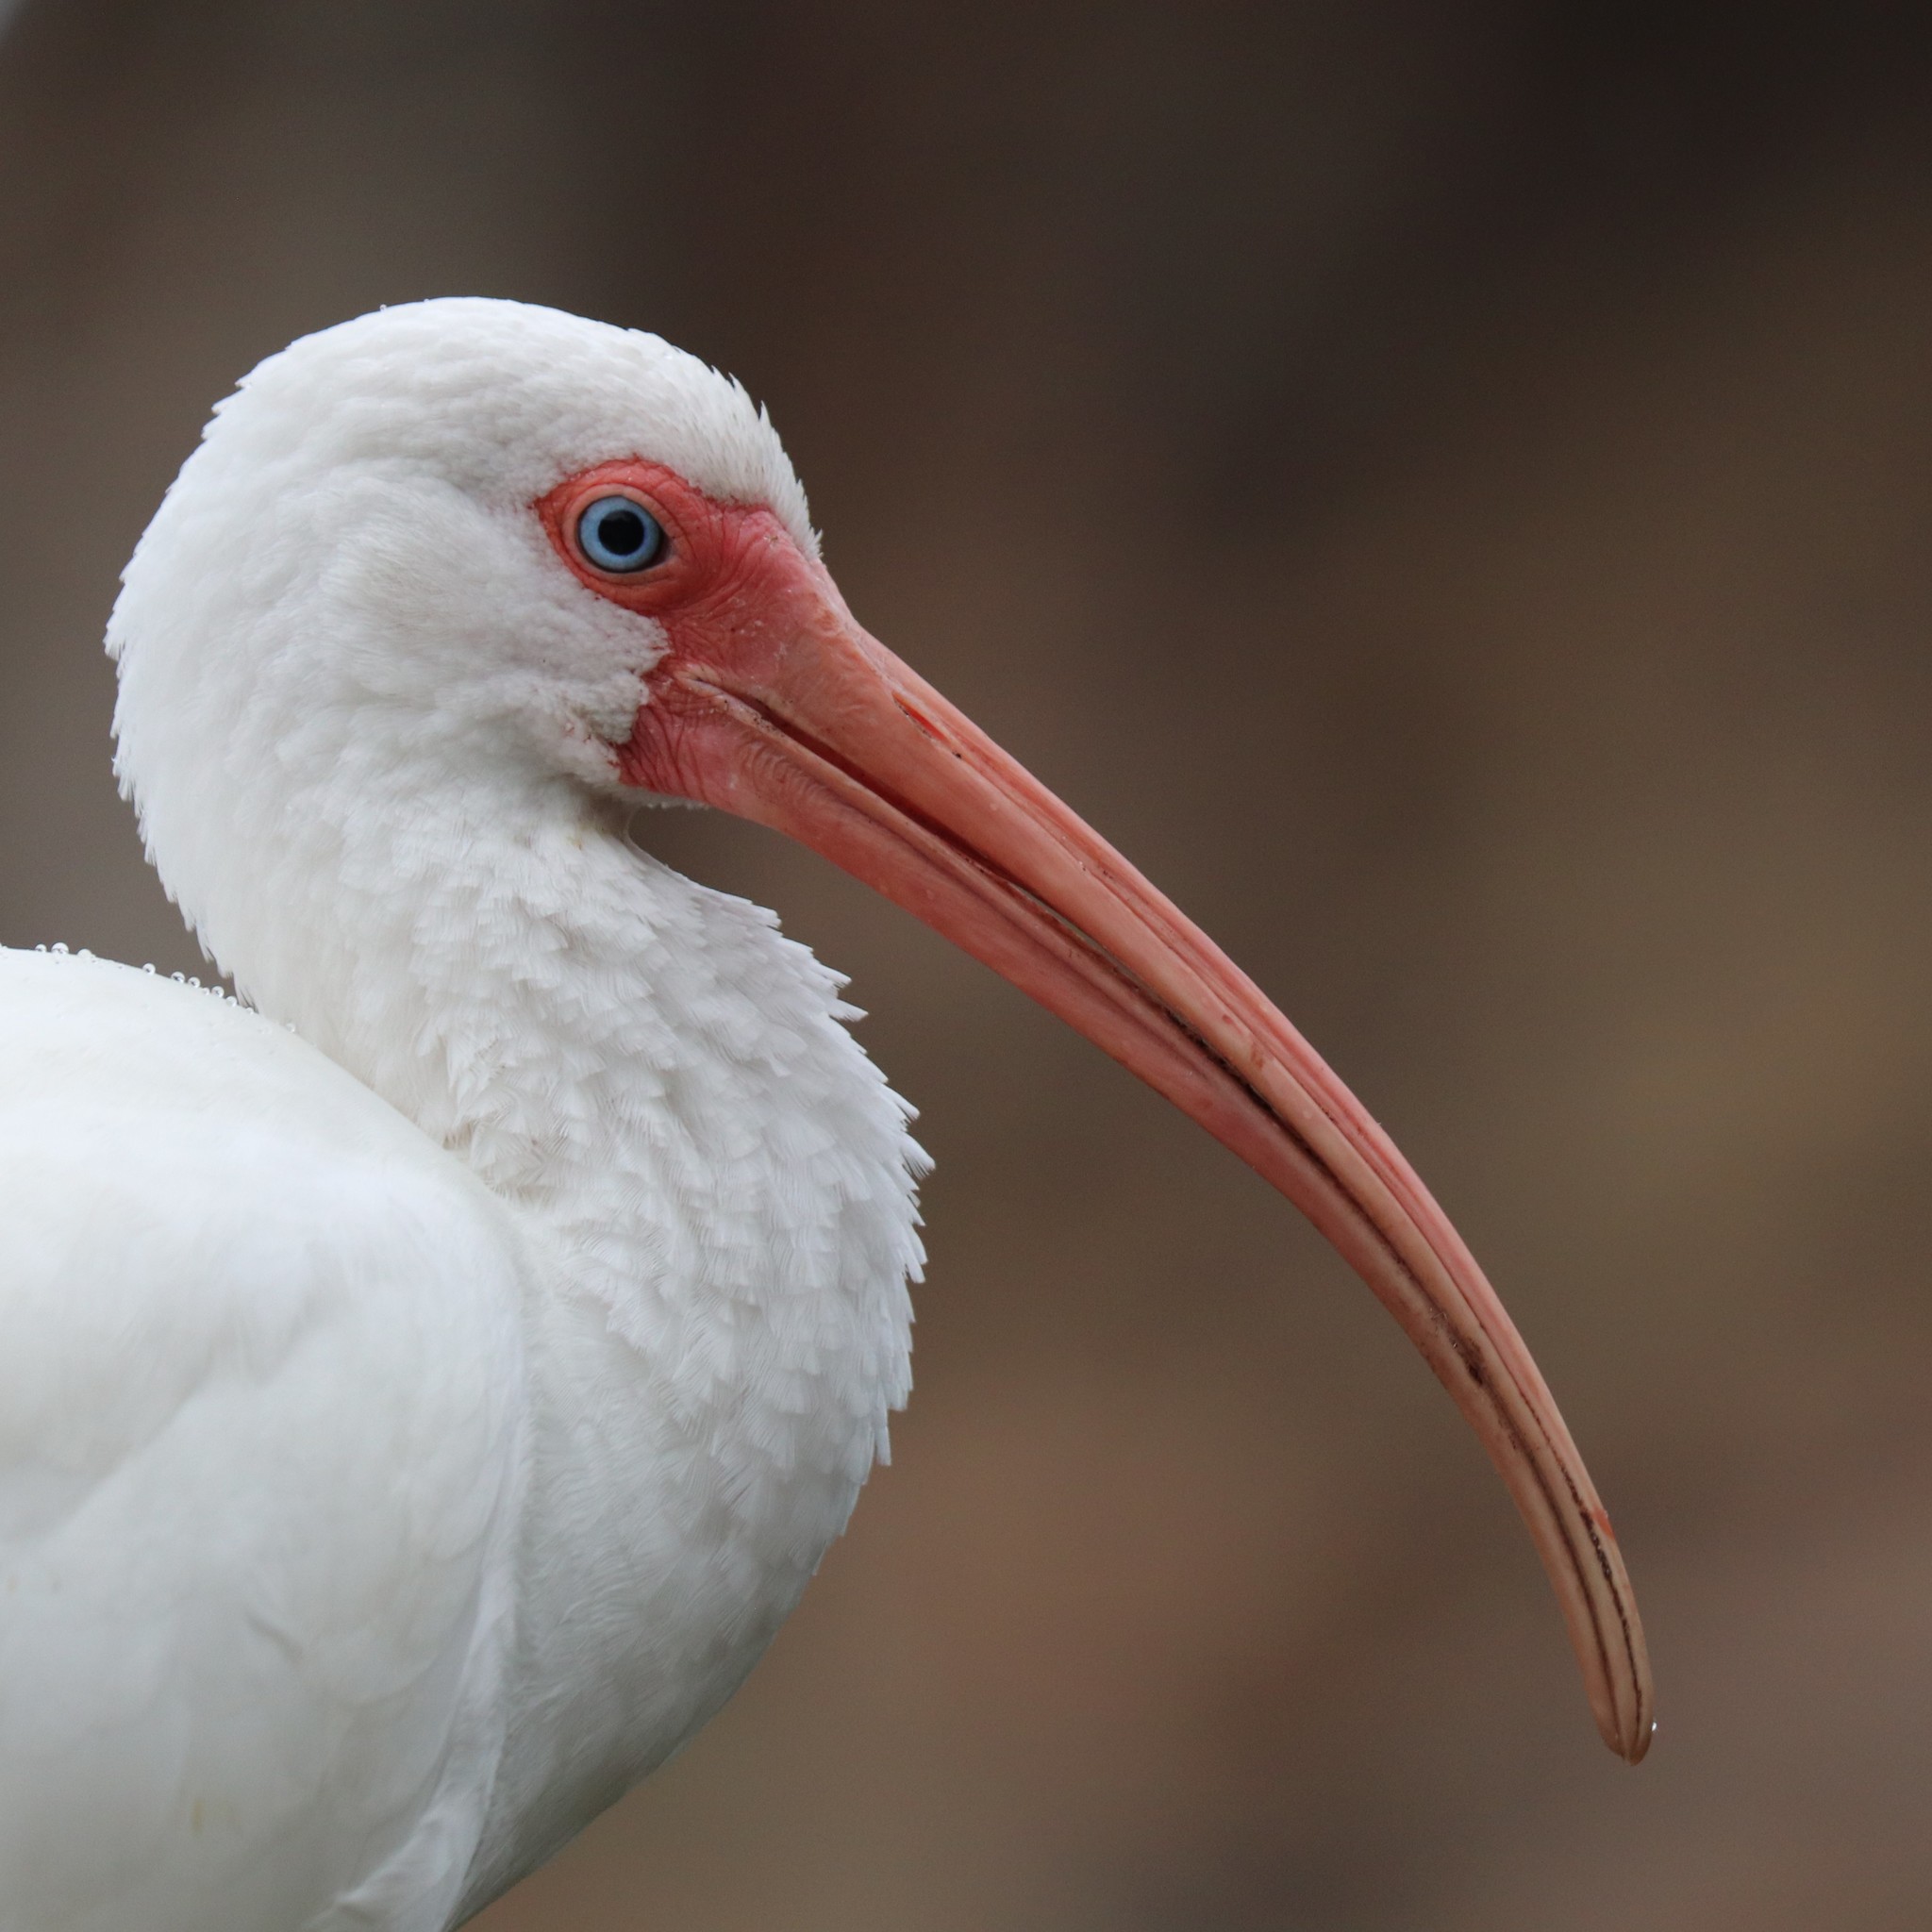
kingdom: Animalia
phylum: Chordata
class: Aves
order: Pelecaniformes
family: Threskiornithidae
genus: Eudocimus
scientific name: Eudocimus albus
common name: White ibis
